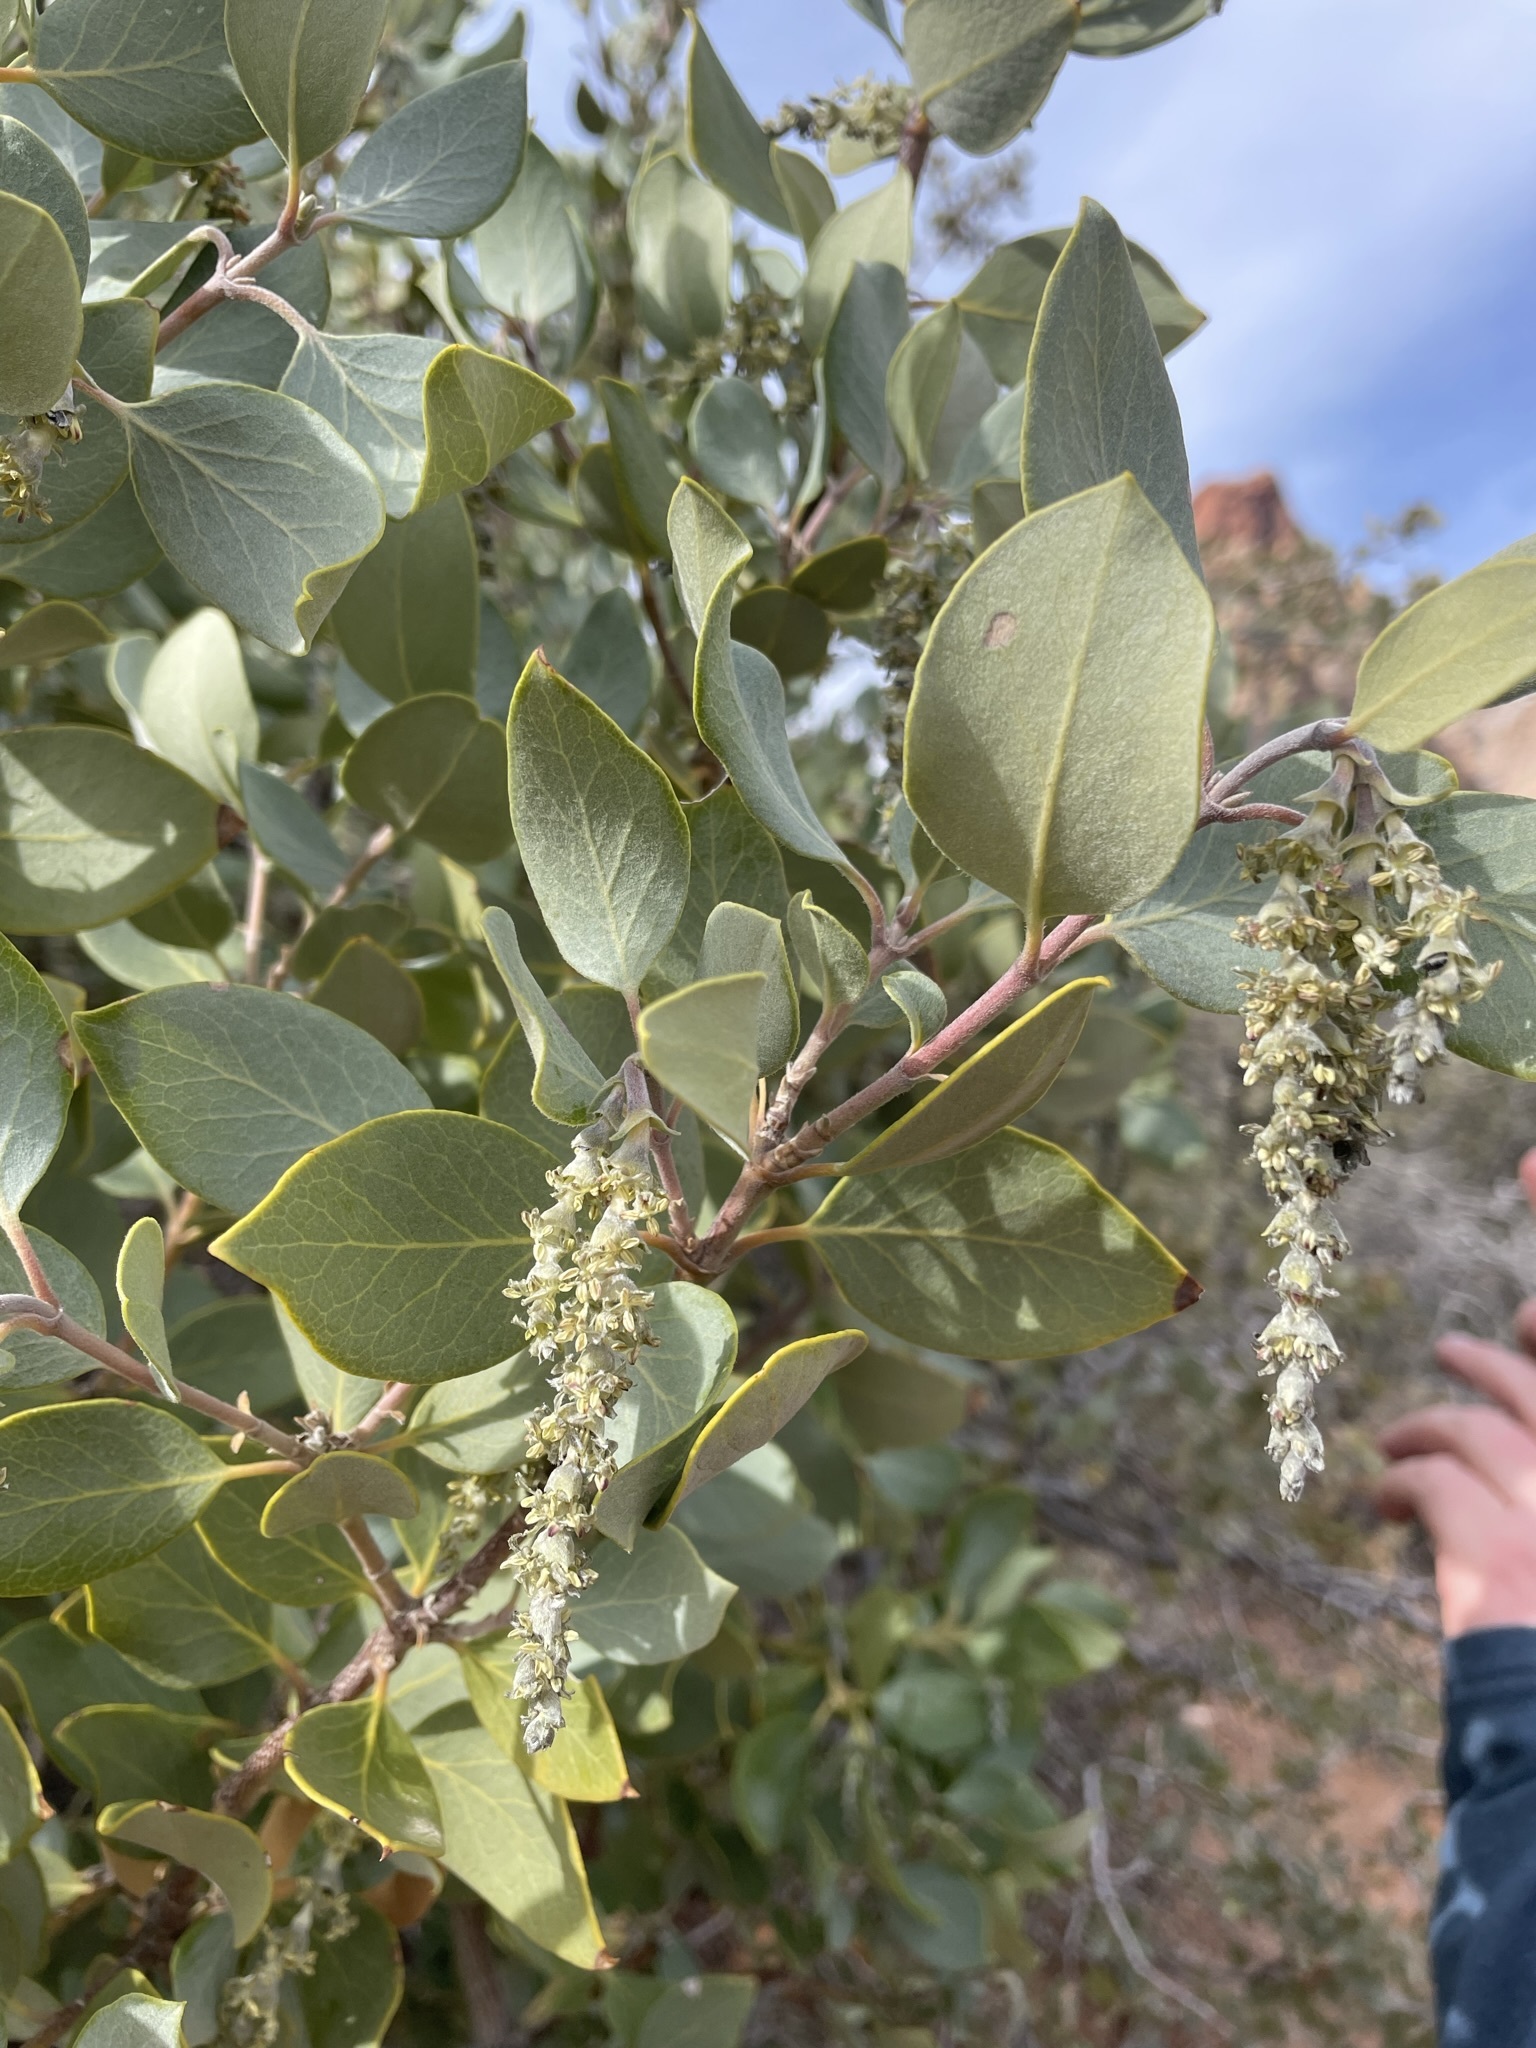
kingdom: Plantae
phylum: Tracheophyta
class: Magnoliopsida
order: Garryales
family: Garryaceae
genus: Garrya
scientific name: Garrya flavescens
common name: Ashy silk-tassel
